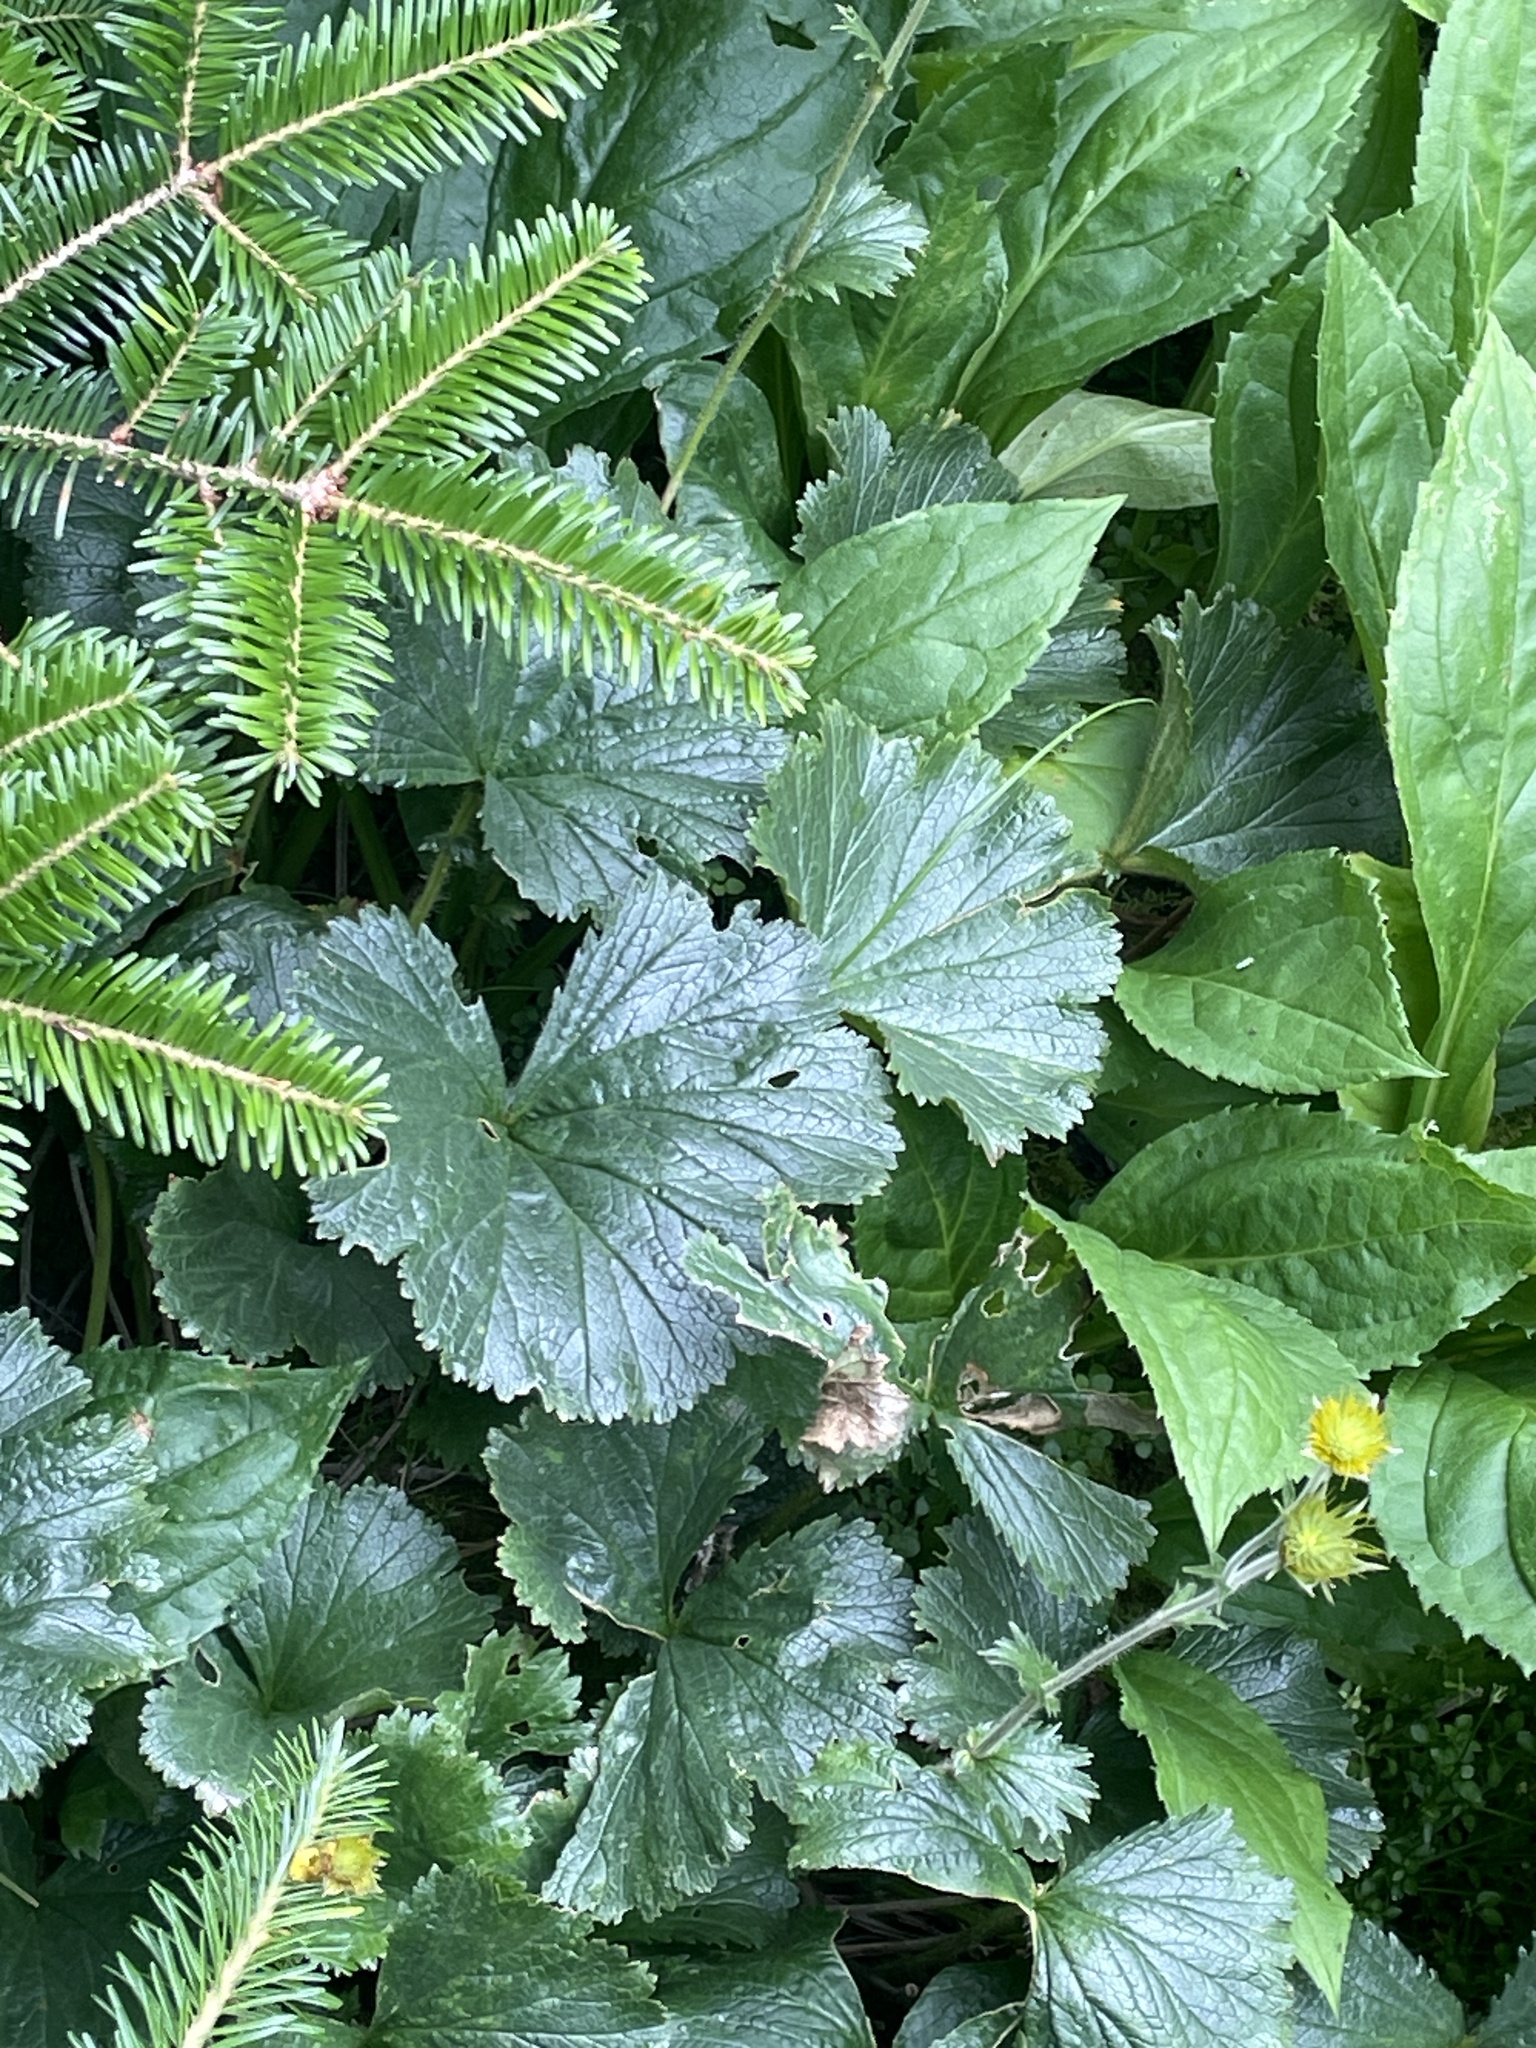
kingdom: Plantae
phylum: Tracheophyta
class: Magnoliopsida
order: Rosales
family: Rosaceae
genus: Geum
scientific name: Geum radiatum
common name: Spreaded avens
